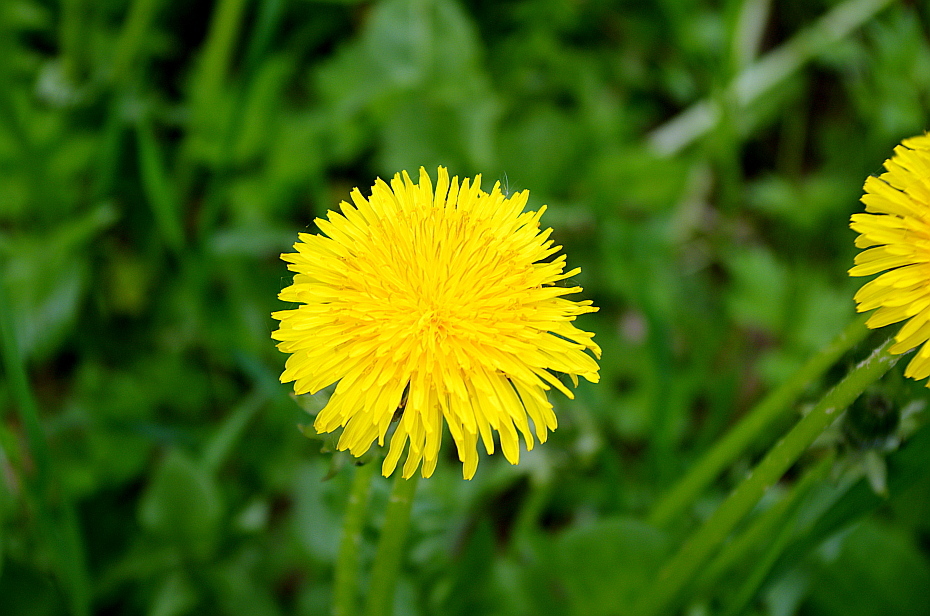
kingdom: Plantae
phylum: Tracheophyta
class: Magnoliopsida
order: Asterales
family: Asteraceae
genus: Taraxacum
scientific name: Taraxacum officinale
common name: Common dandelion
